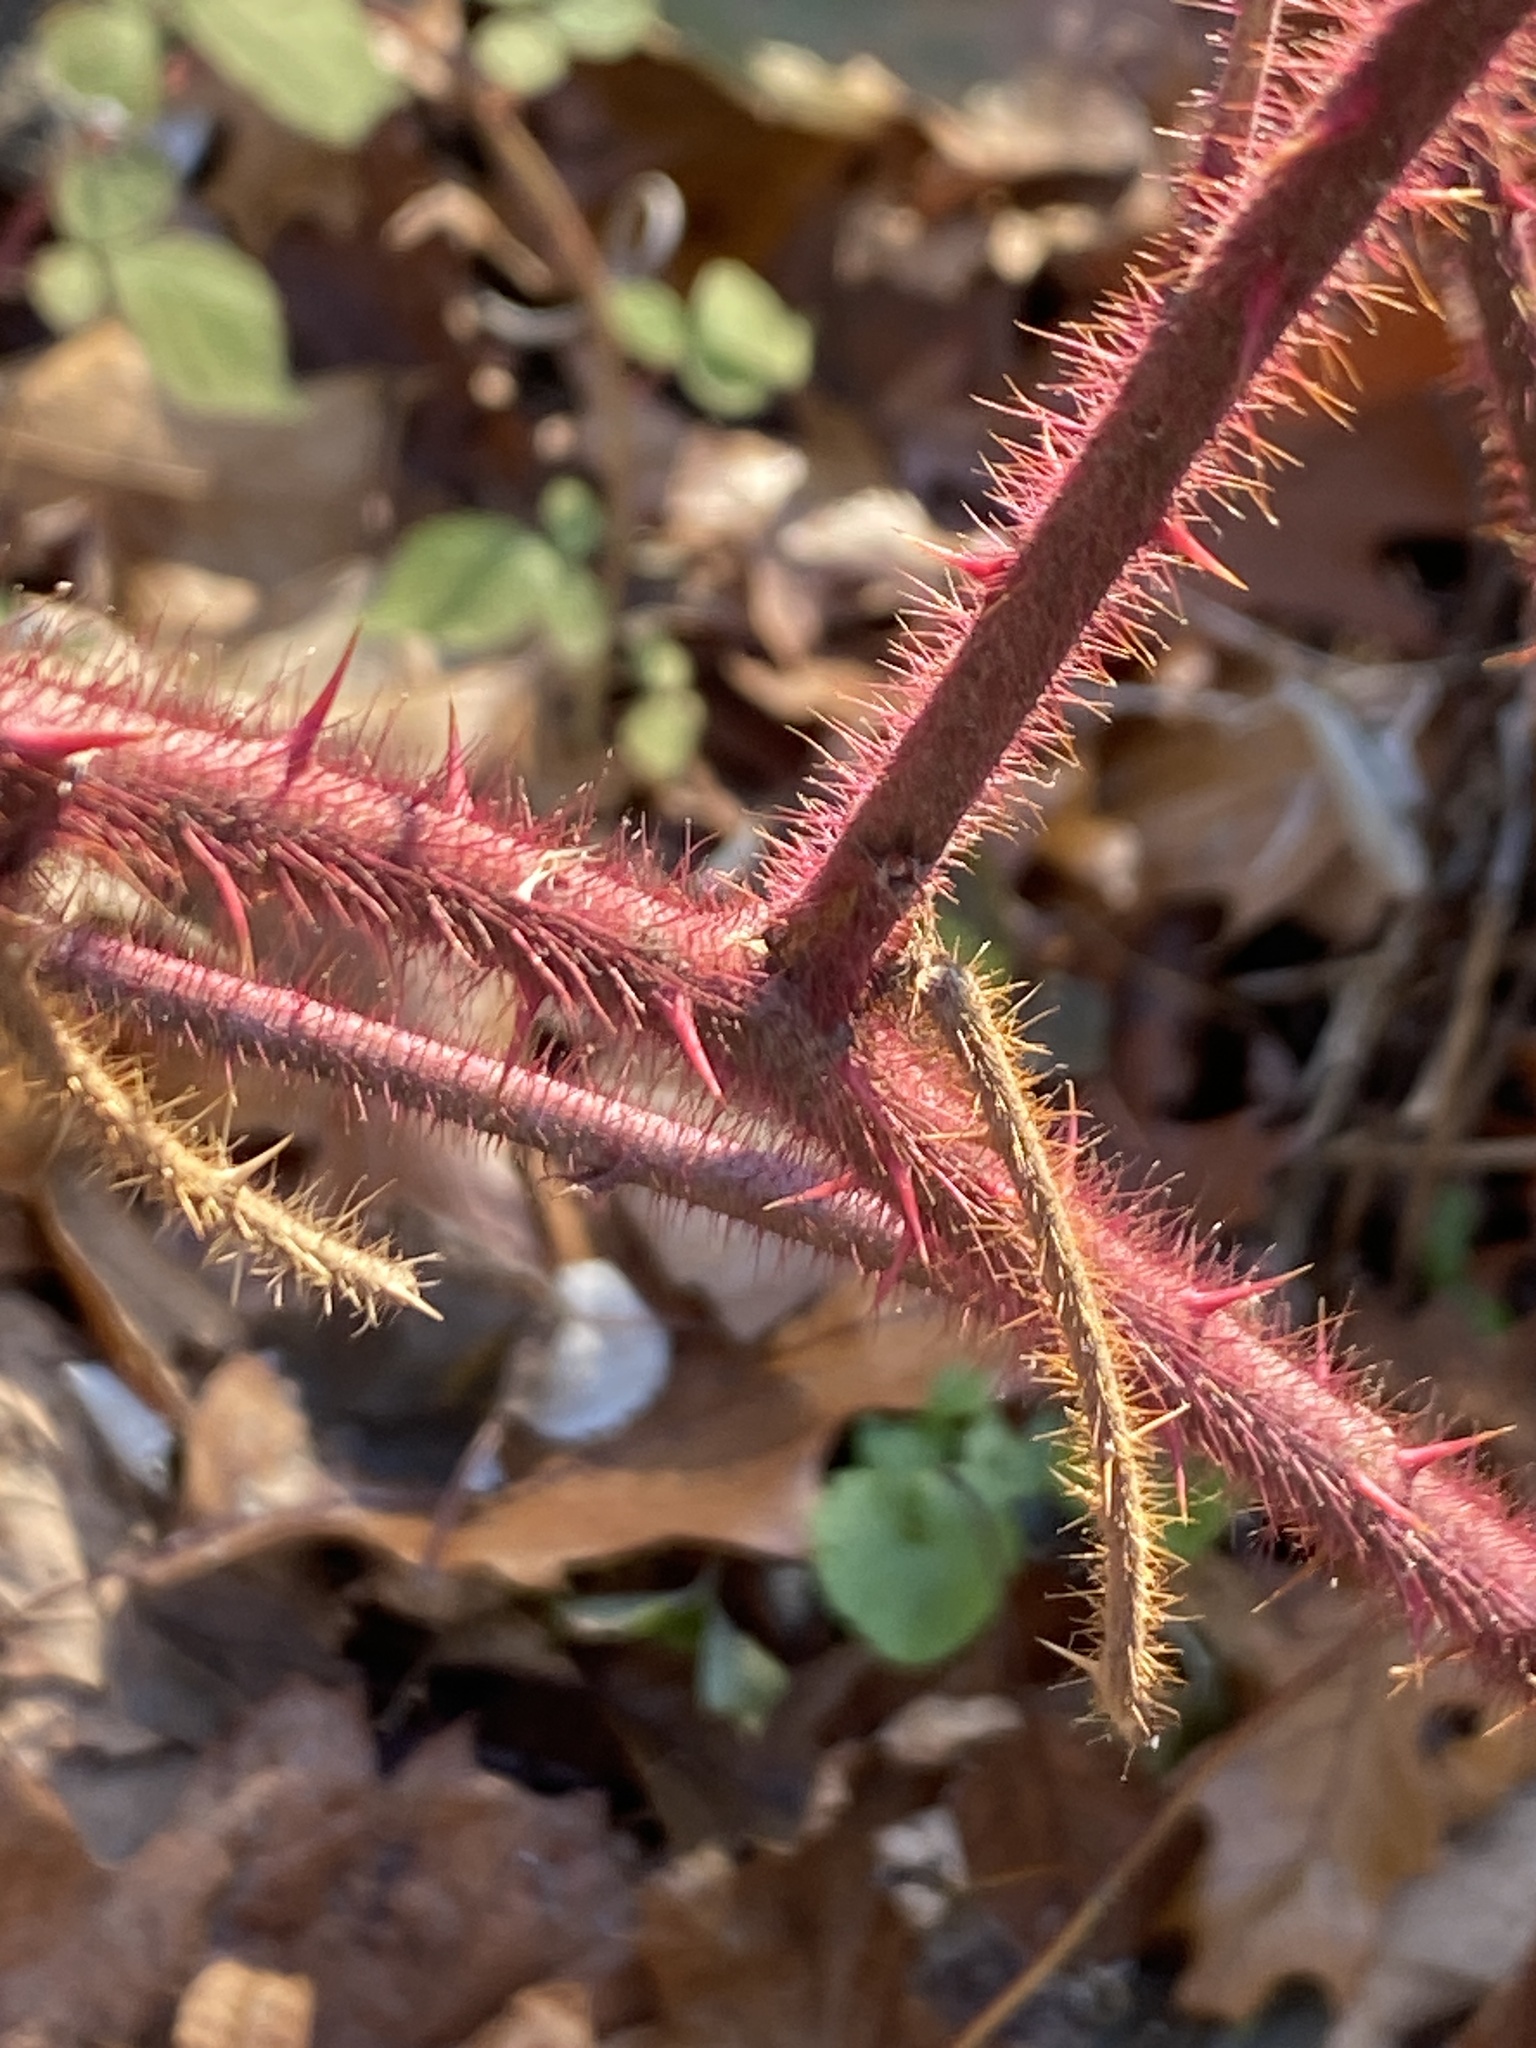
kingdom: Plantae
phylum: Tracheophyta
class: Magnoliopsida
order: Rosales
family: Rosaceae
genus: Rubus
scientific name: Rubus phoenicolasius
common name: Japanese wineberry
